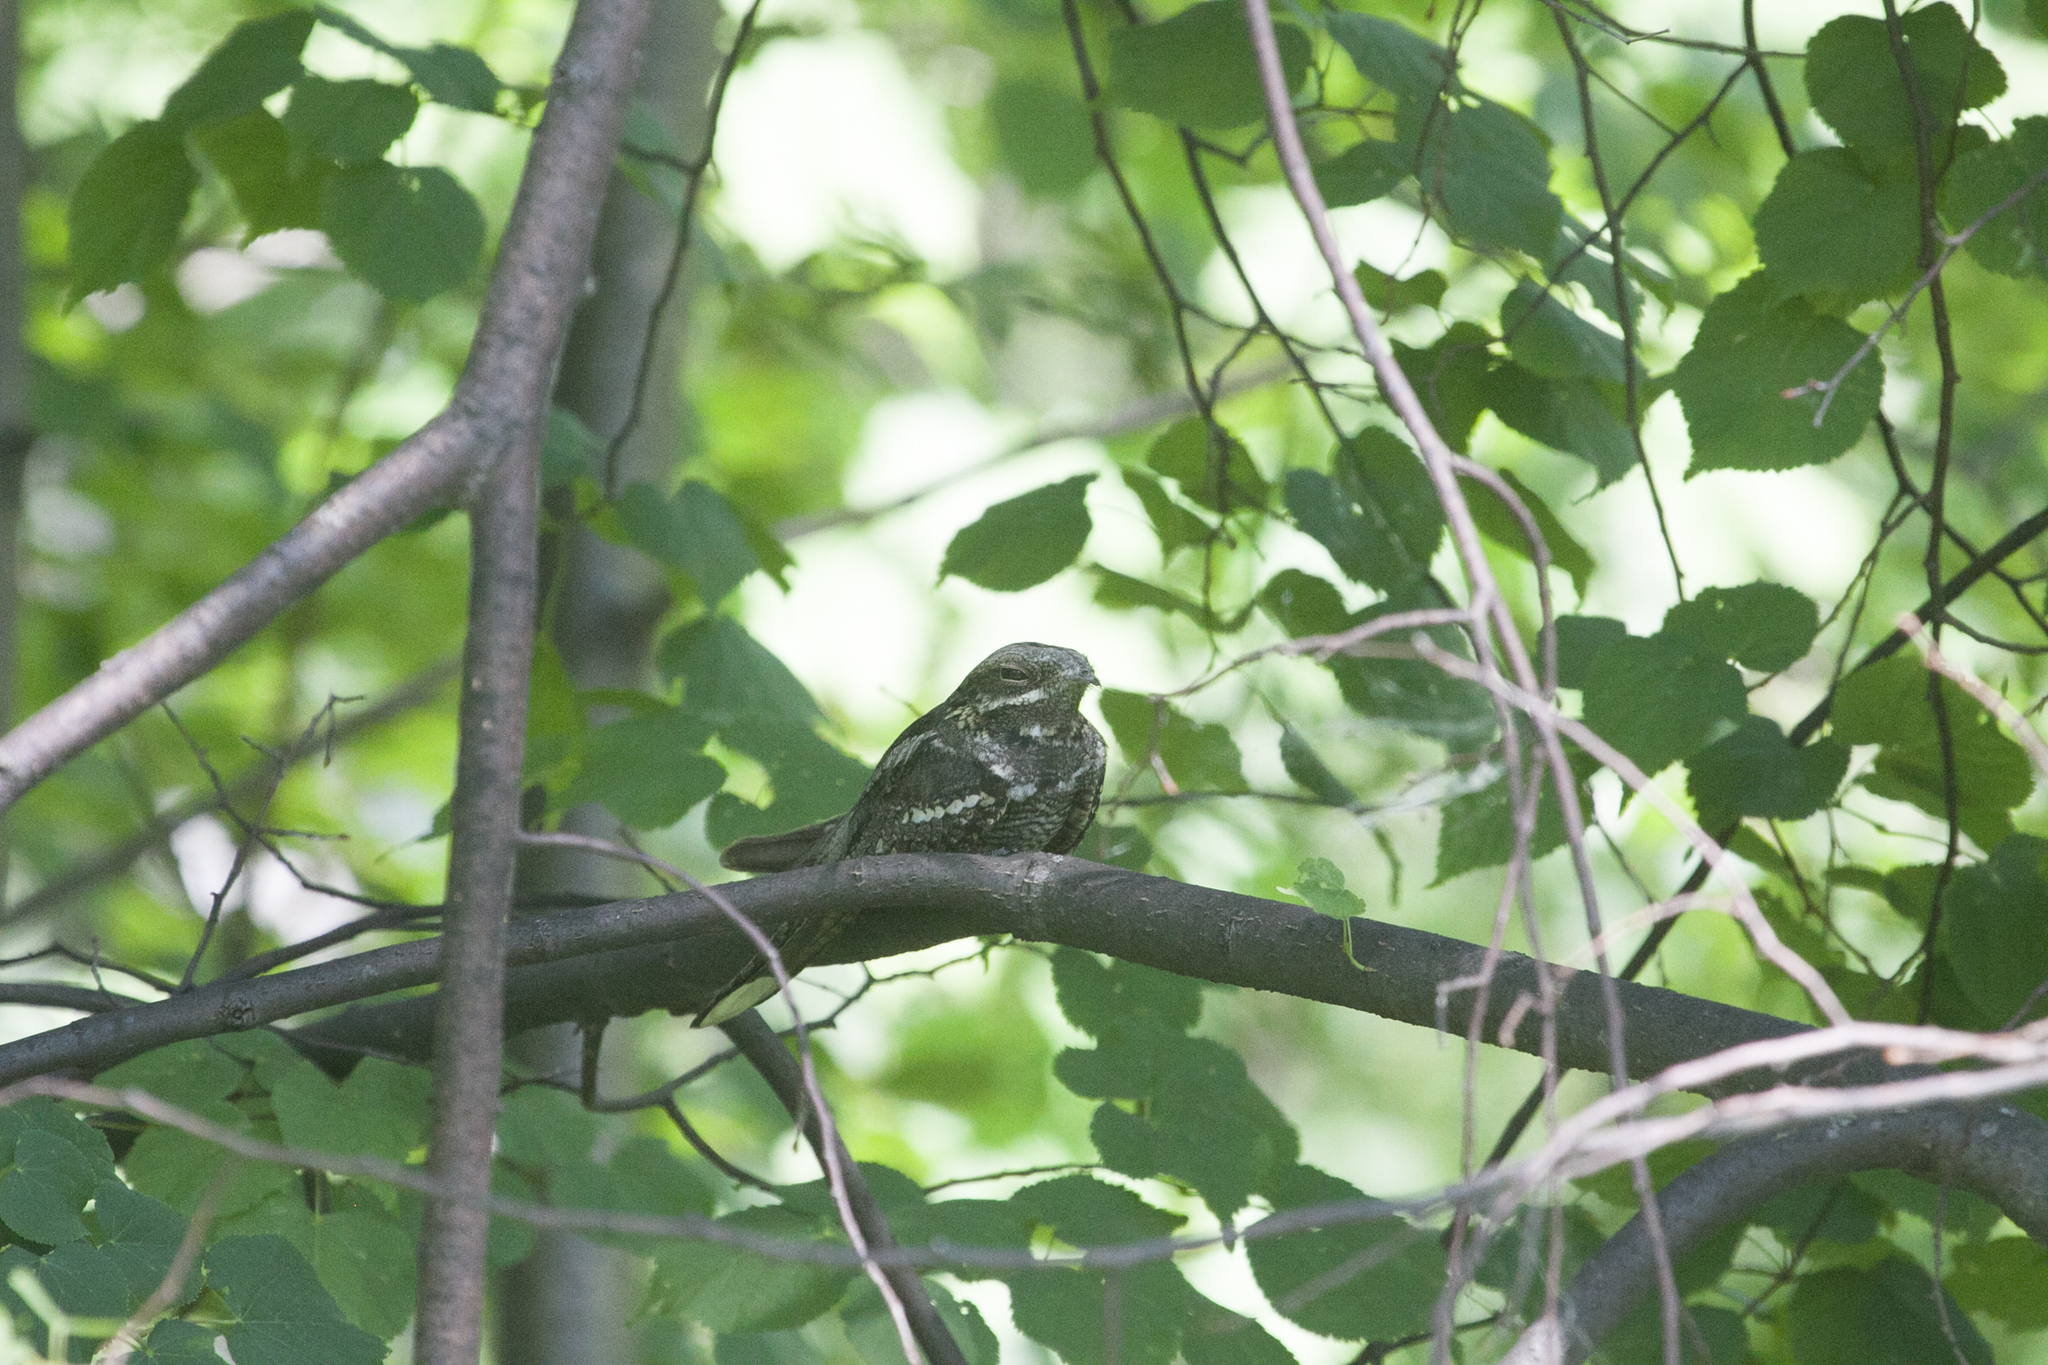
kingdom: Animalia
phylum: Chordata
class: Aves
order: Caprimulgiformes
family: Caprimulgidae
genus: Caprimulgus
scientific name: Caprimulgus europaeus
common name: European nightjar
